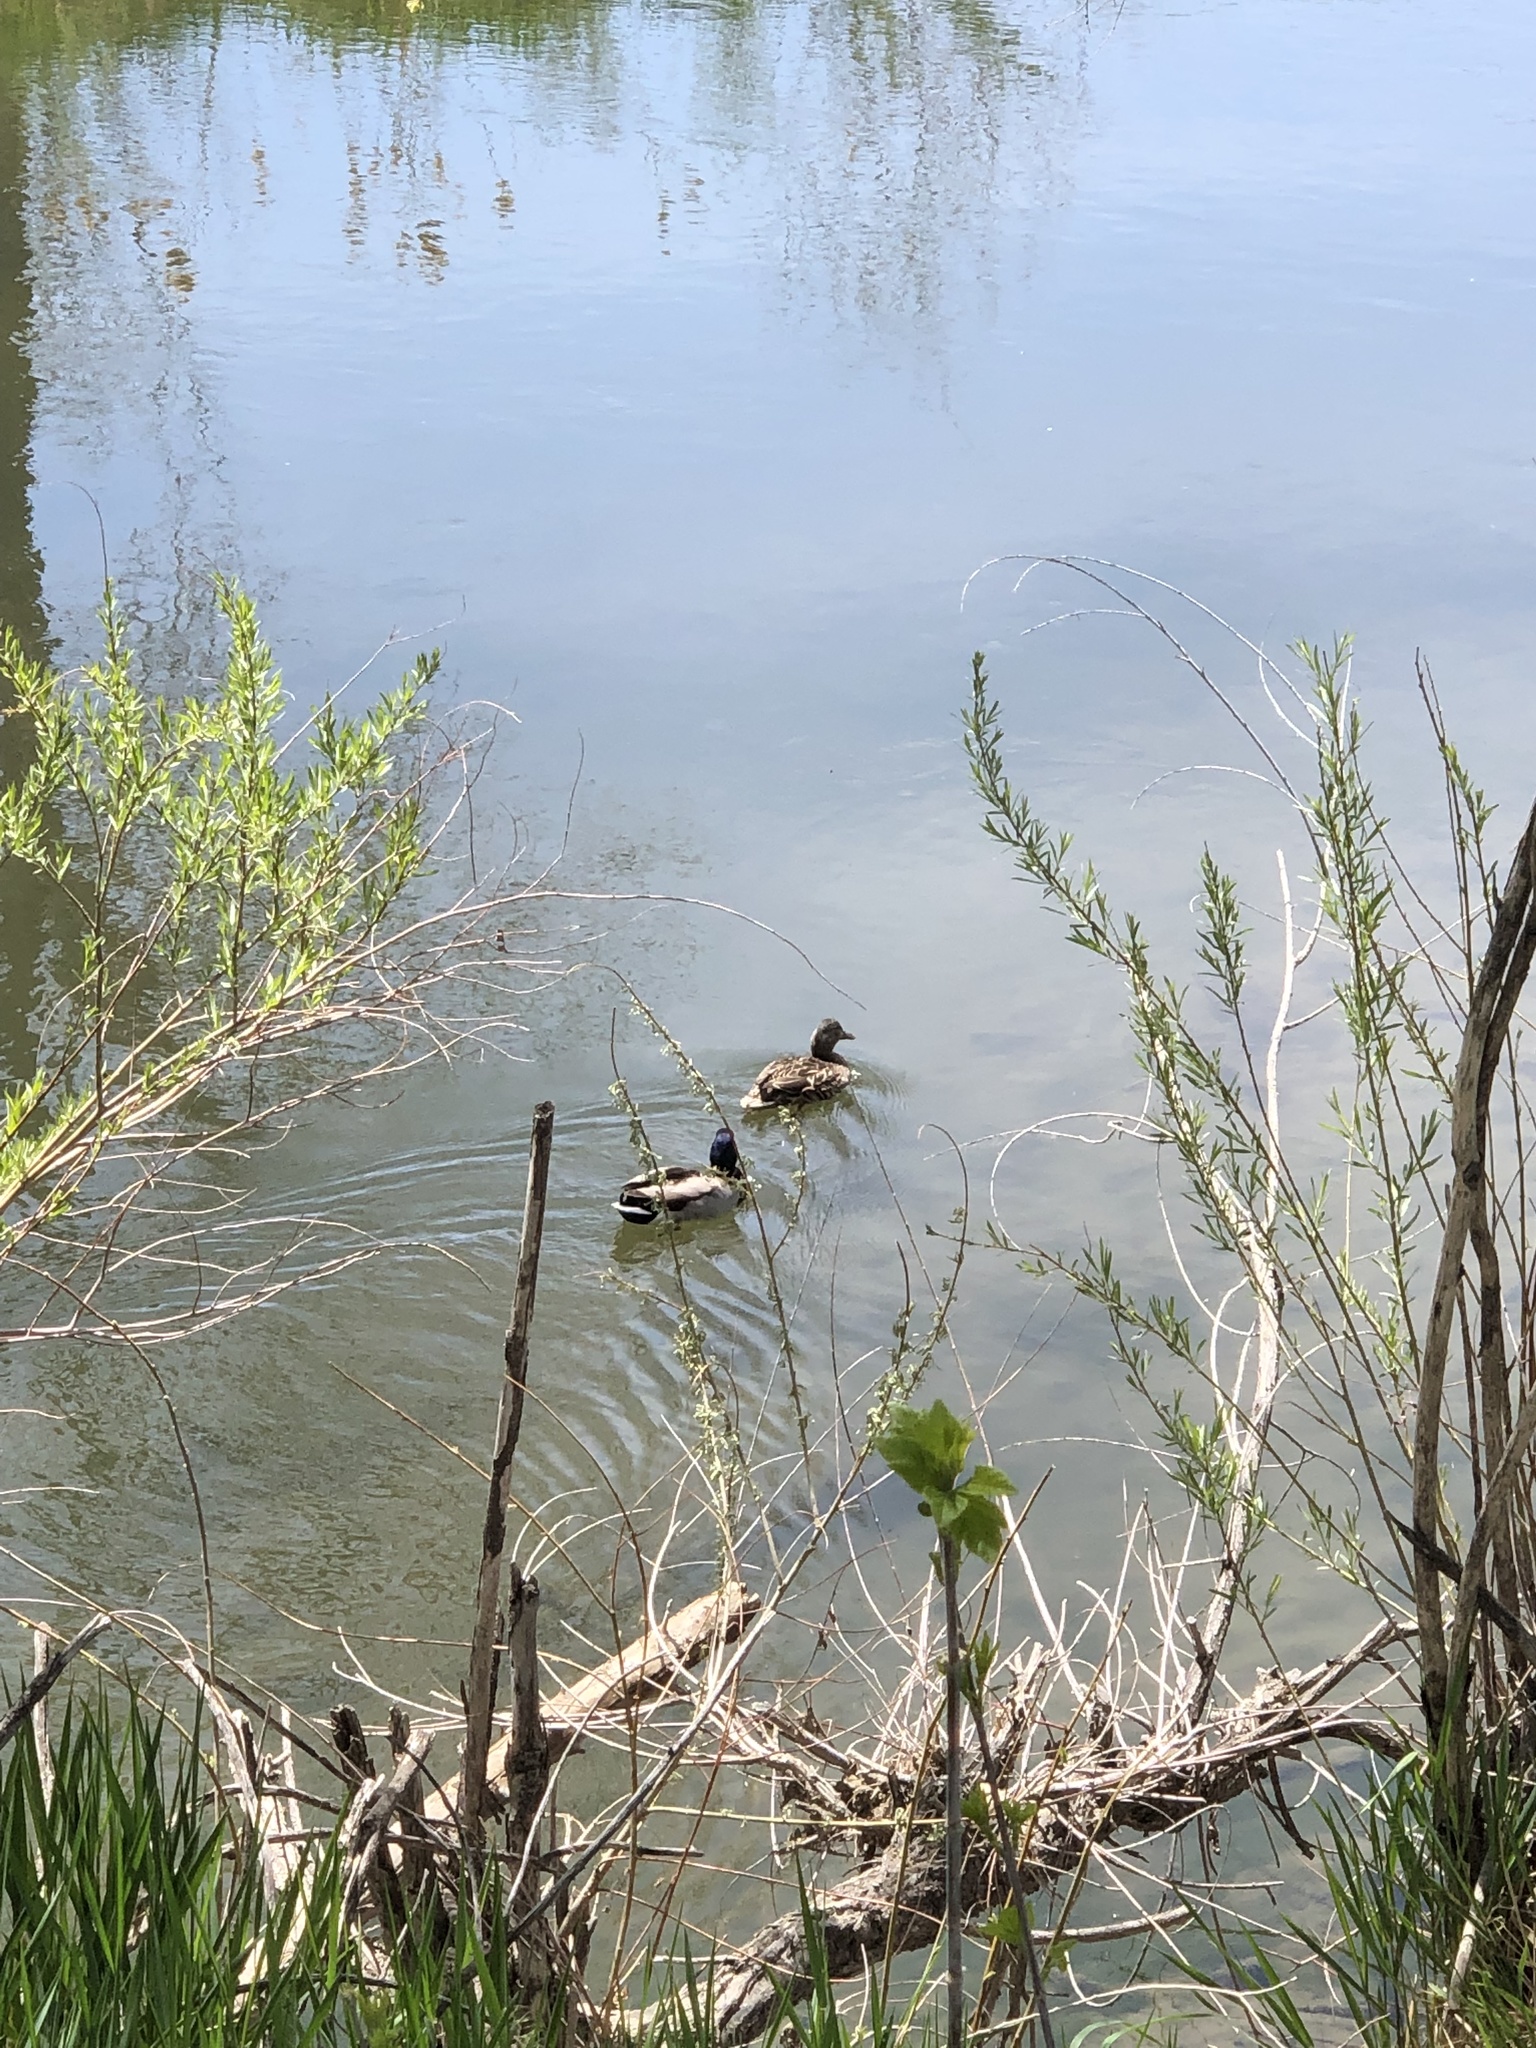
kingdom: Animalia
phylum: Chordata
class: Aves
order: Anseriformes
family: Anatidae
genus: Anas
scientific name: Anas platyrhynchos
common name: Mallard
